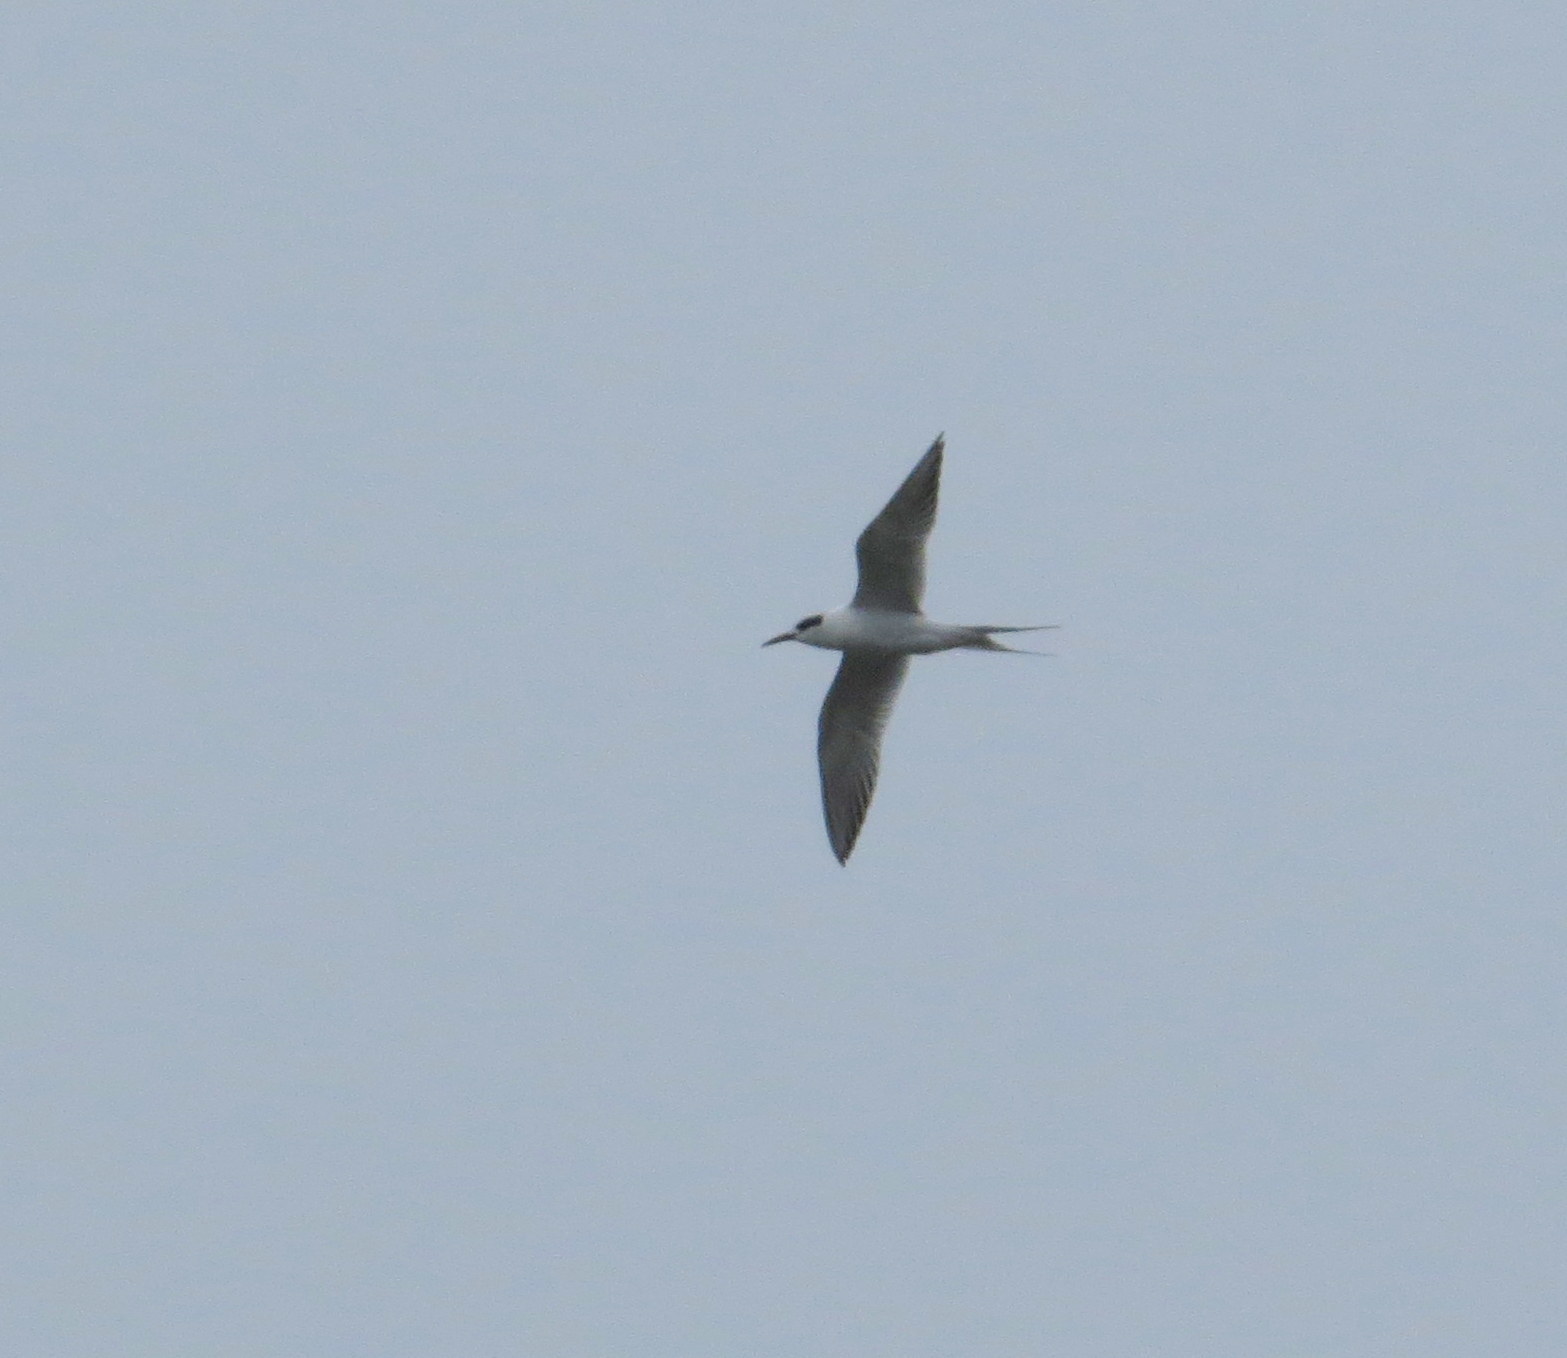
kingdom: Animalia
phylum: Chordata
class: Aves
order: Charadriiformes
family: Laridae
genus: Sterna
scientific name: Sterna forsteri
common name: Forster's tern
